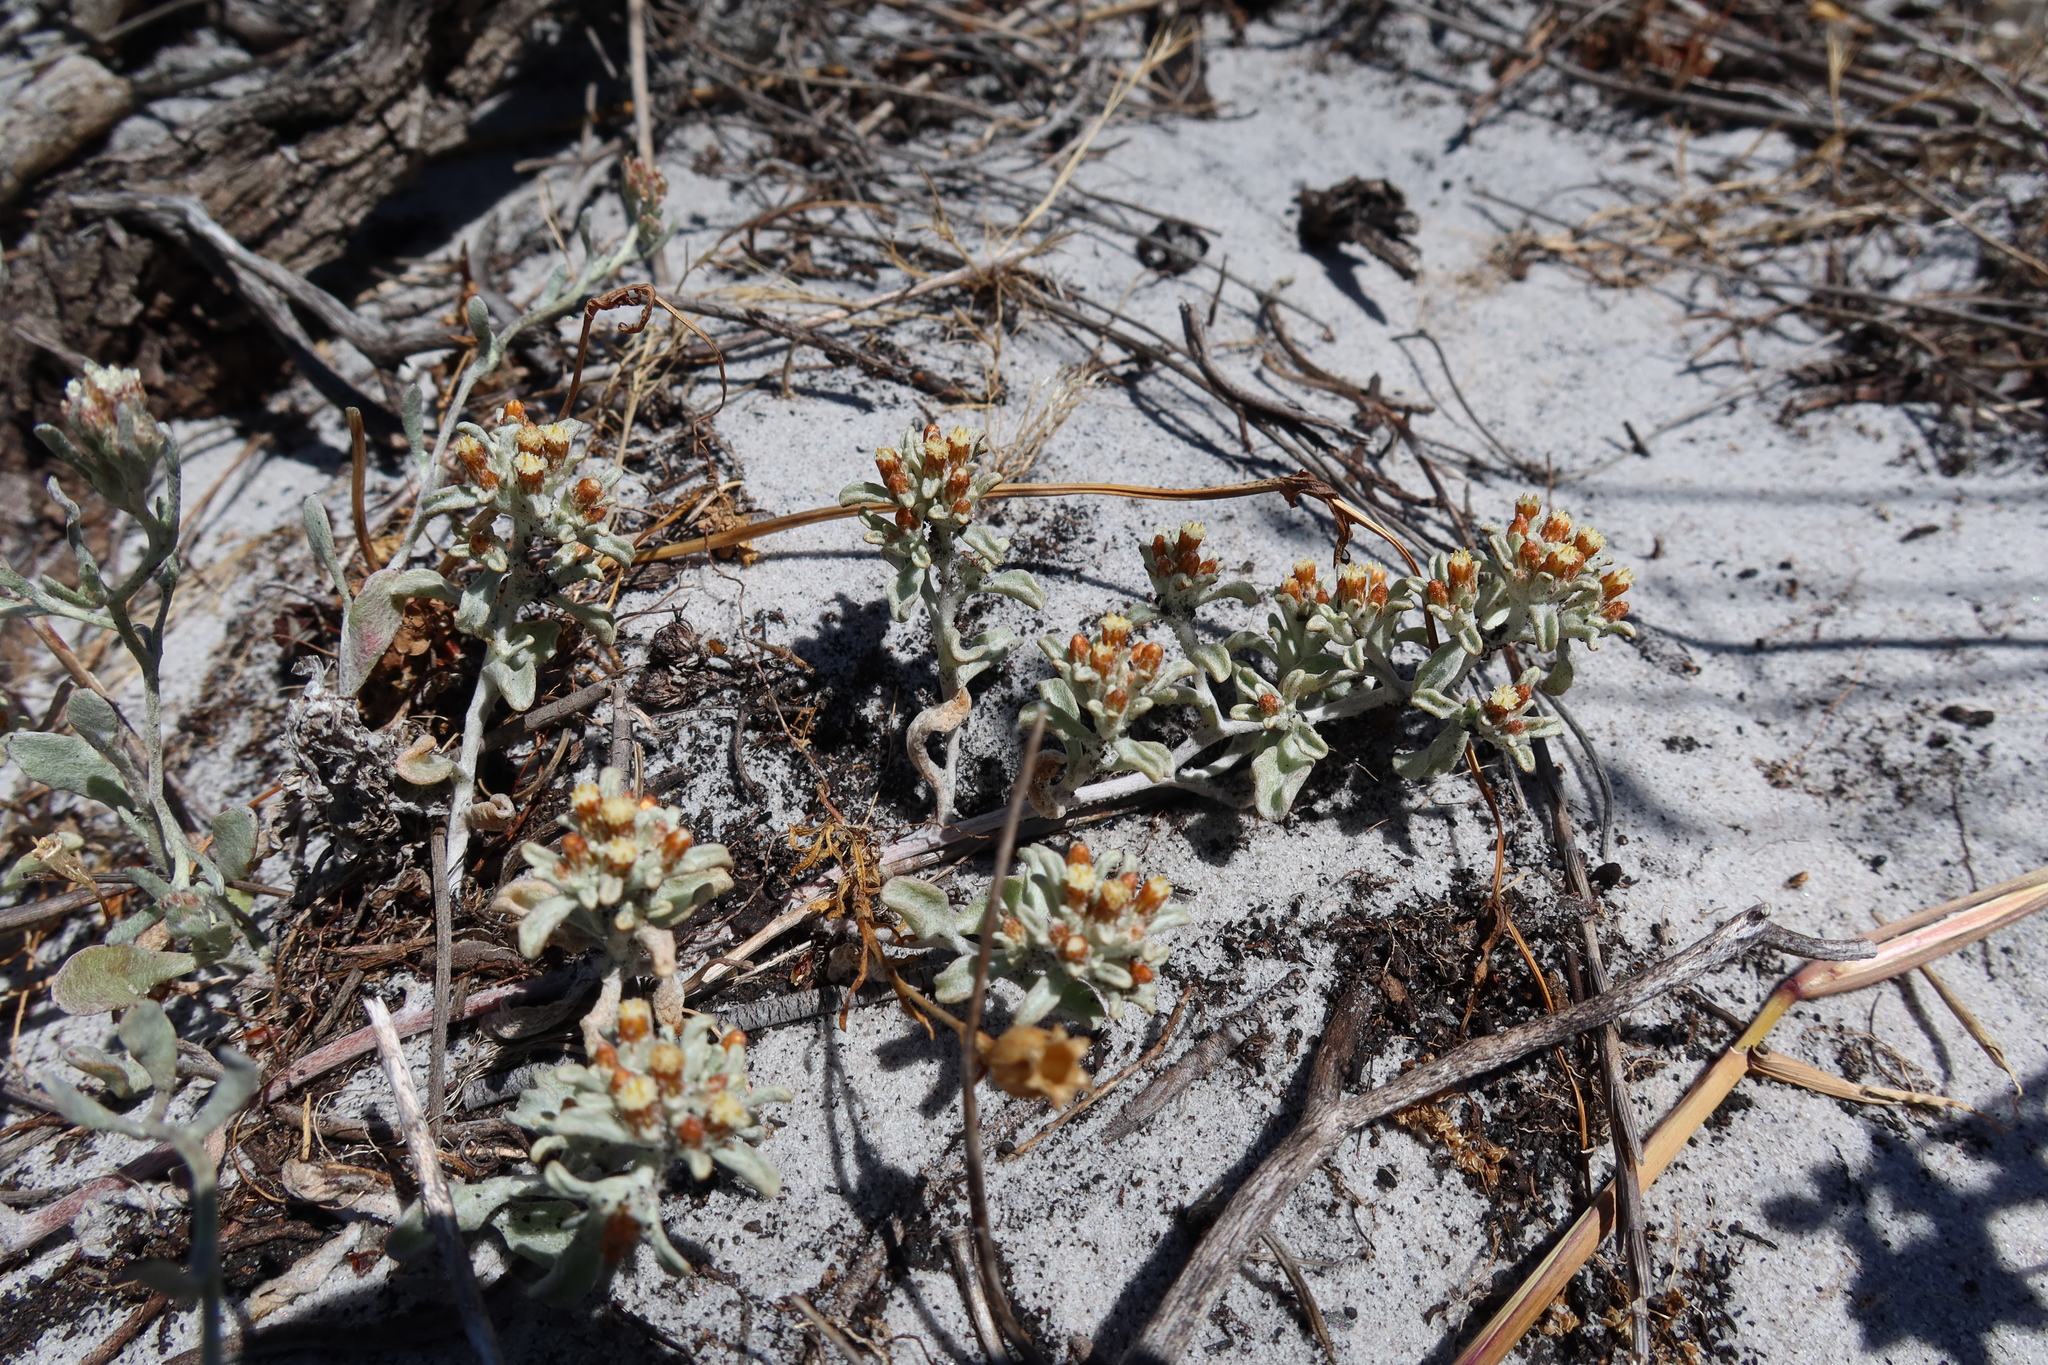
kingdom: Plantae
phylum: Tracheophyta
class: Magnoliopsida
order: Asterales
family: Asteraceae
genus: Helichrysum
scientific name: Helichrysum litorale
